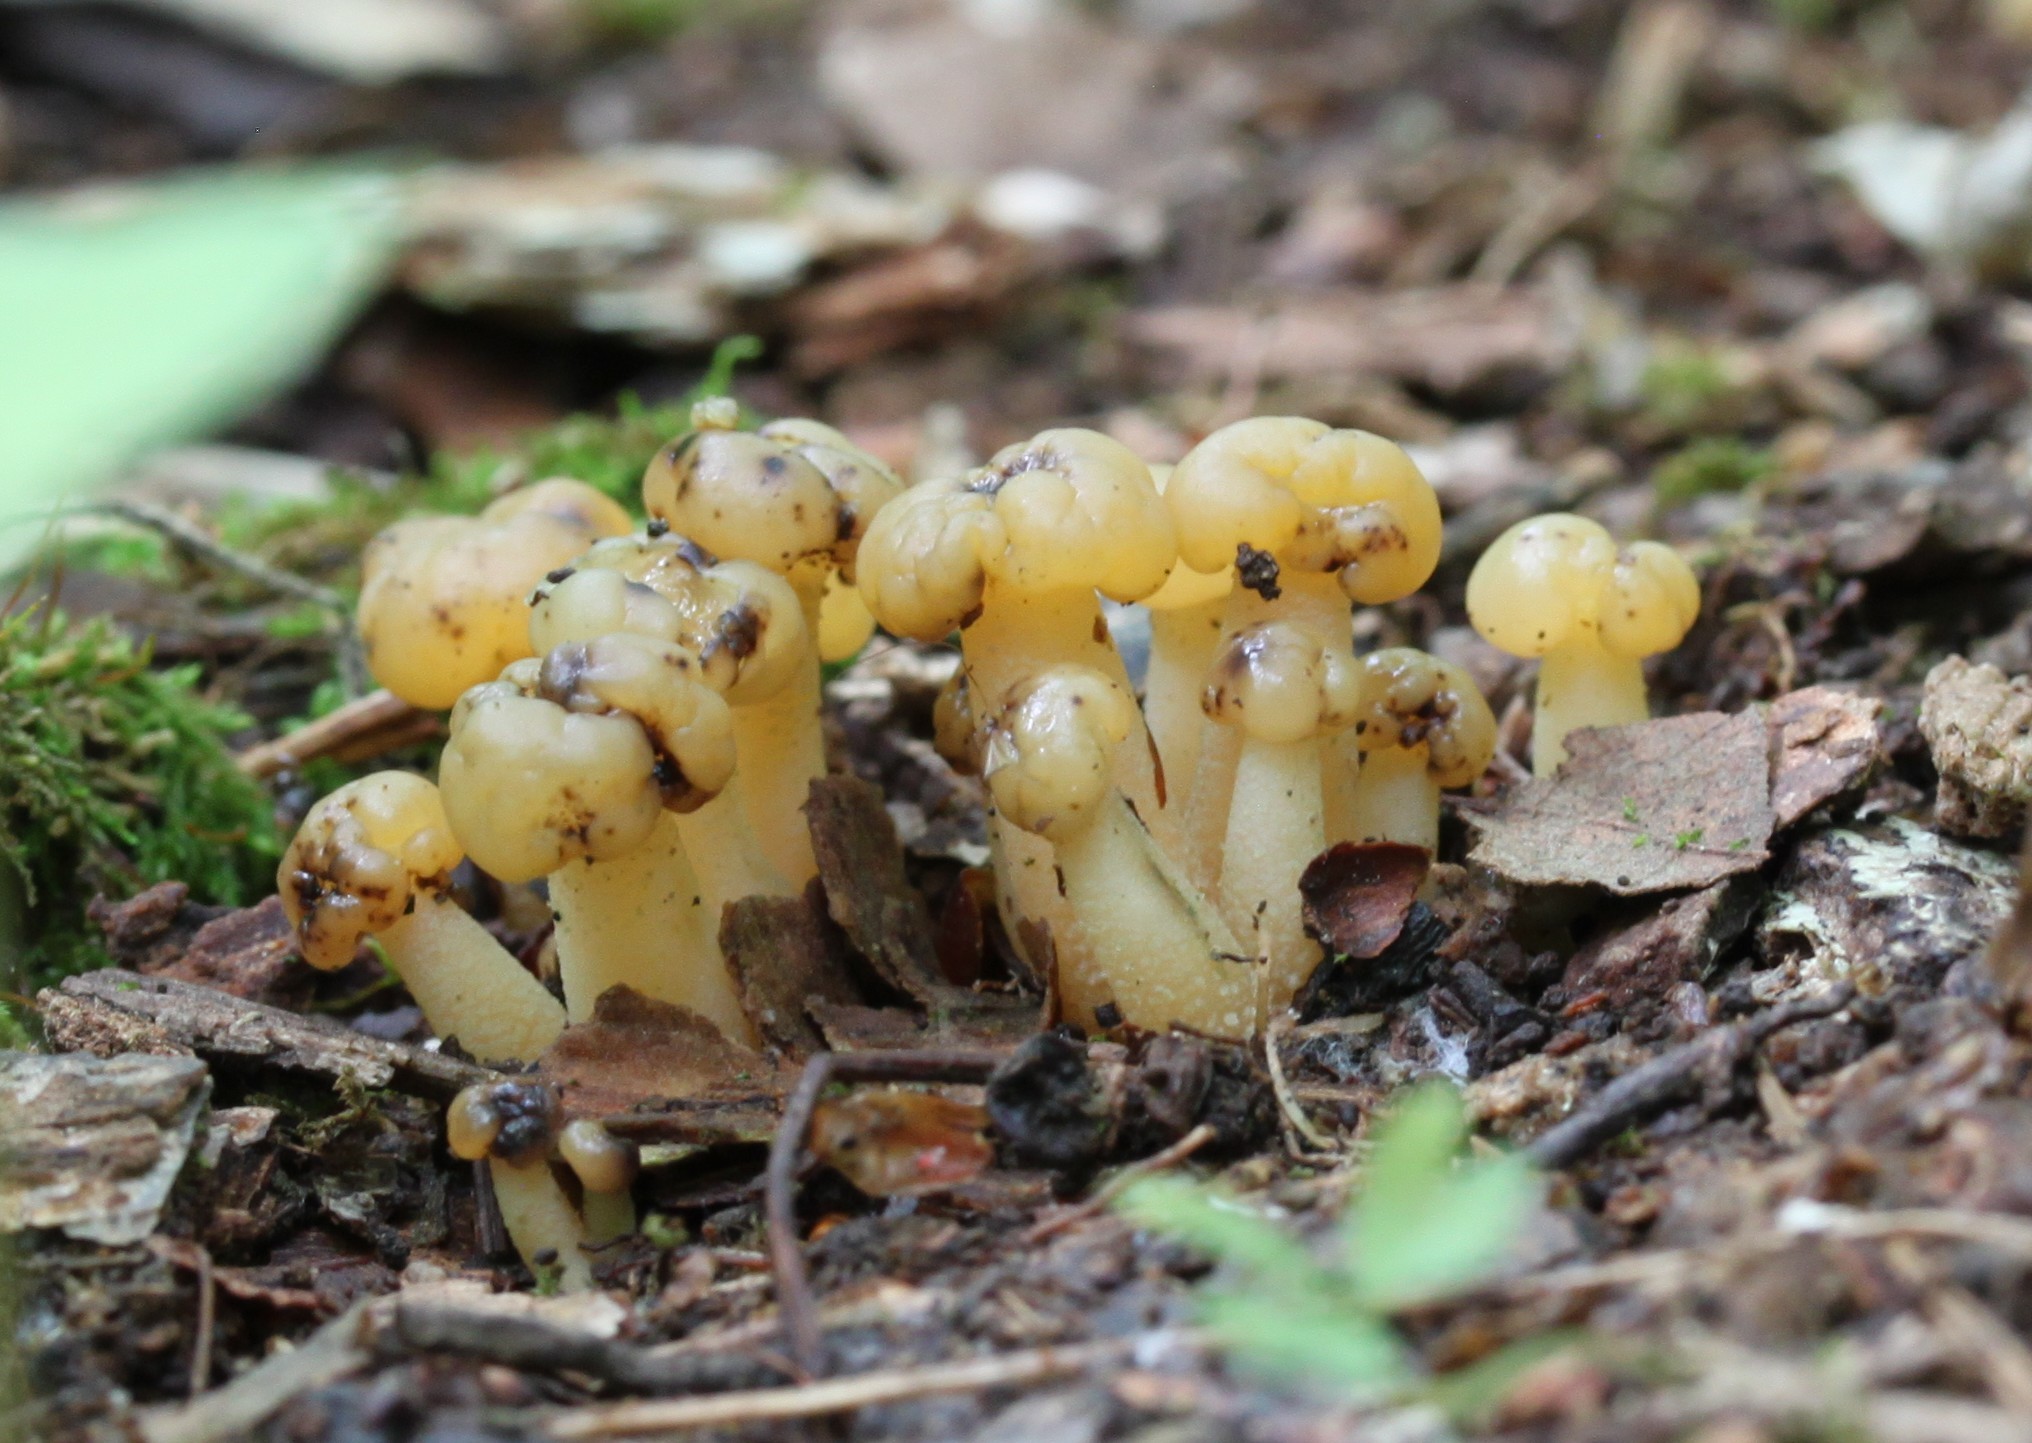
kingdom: Fungi
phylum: Ascomycota
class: Leotiomycetes
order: Leotiales
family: Leotiaceae
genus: Leotia
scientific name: Leotia lubrica
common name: Jellybaby
